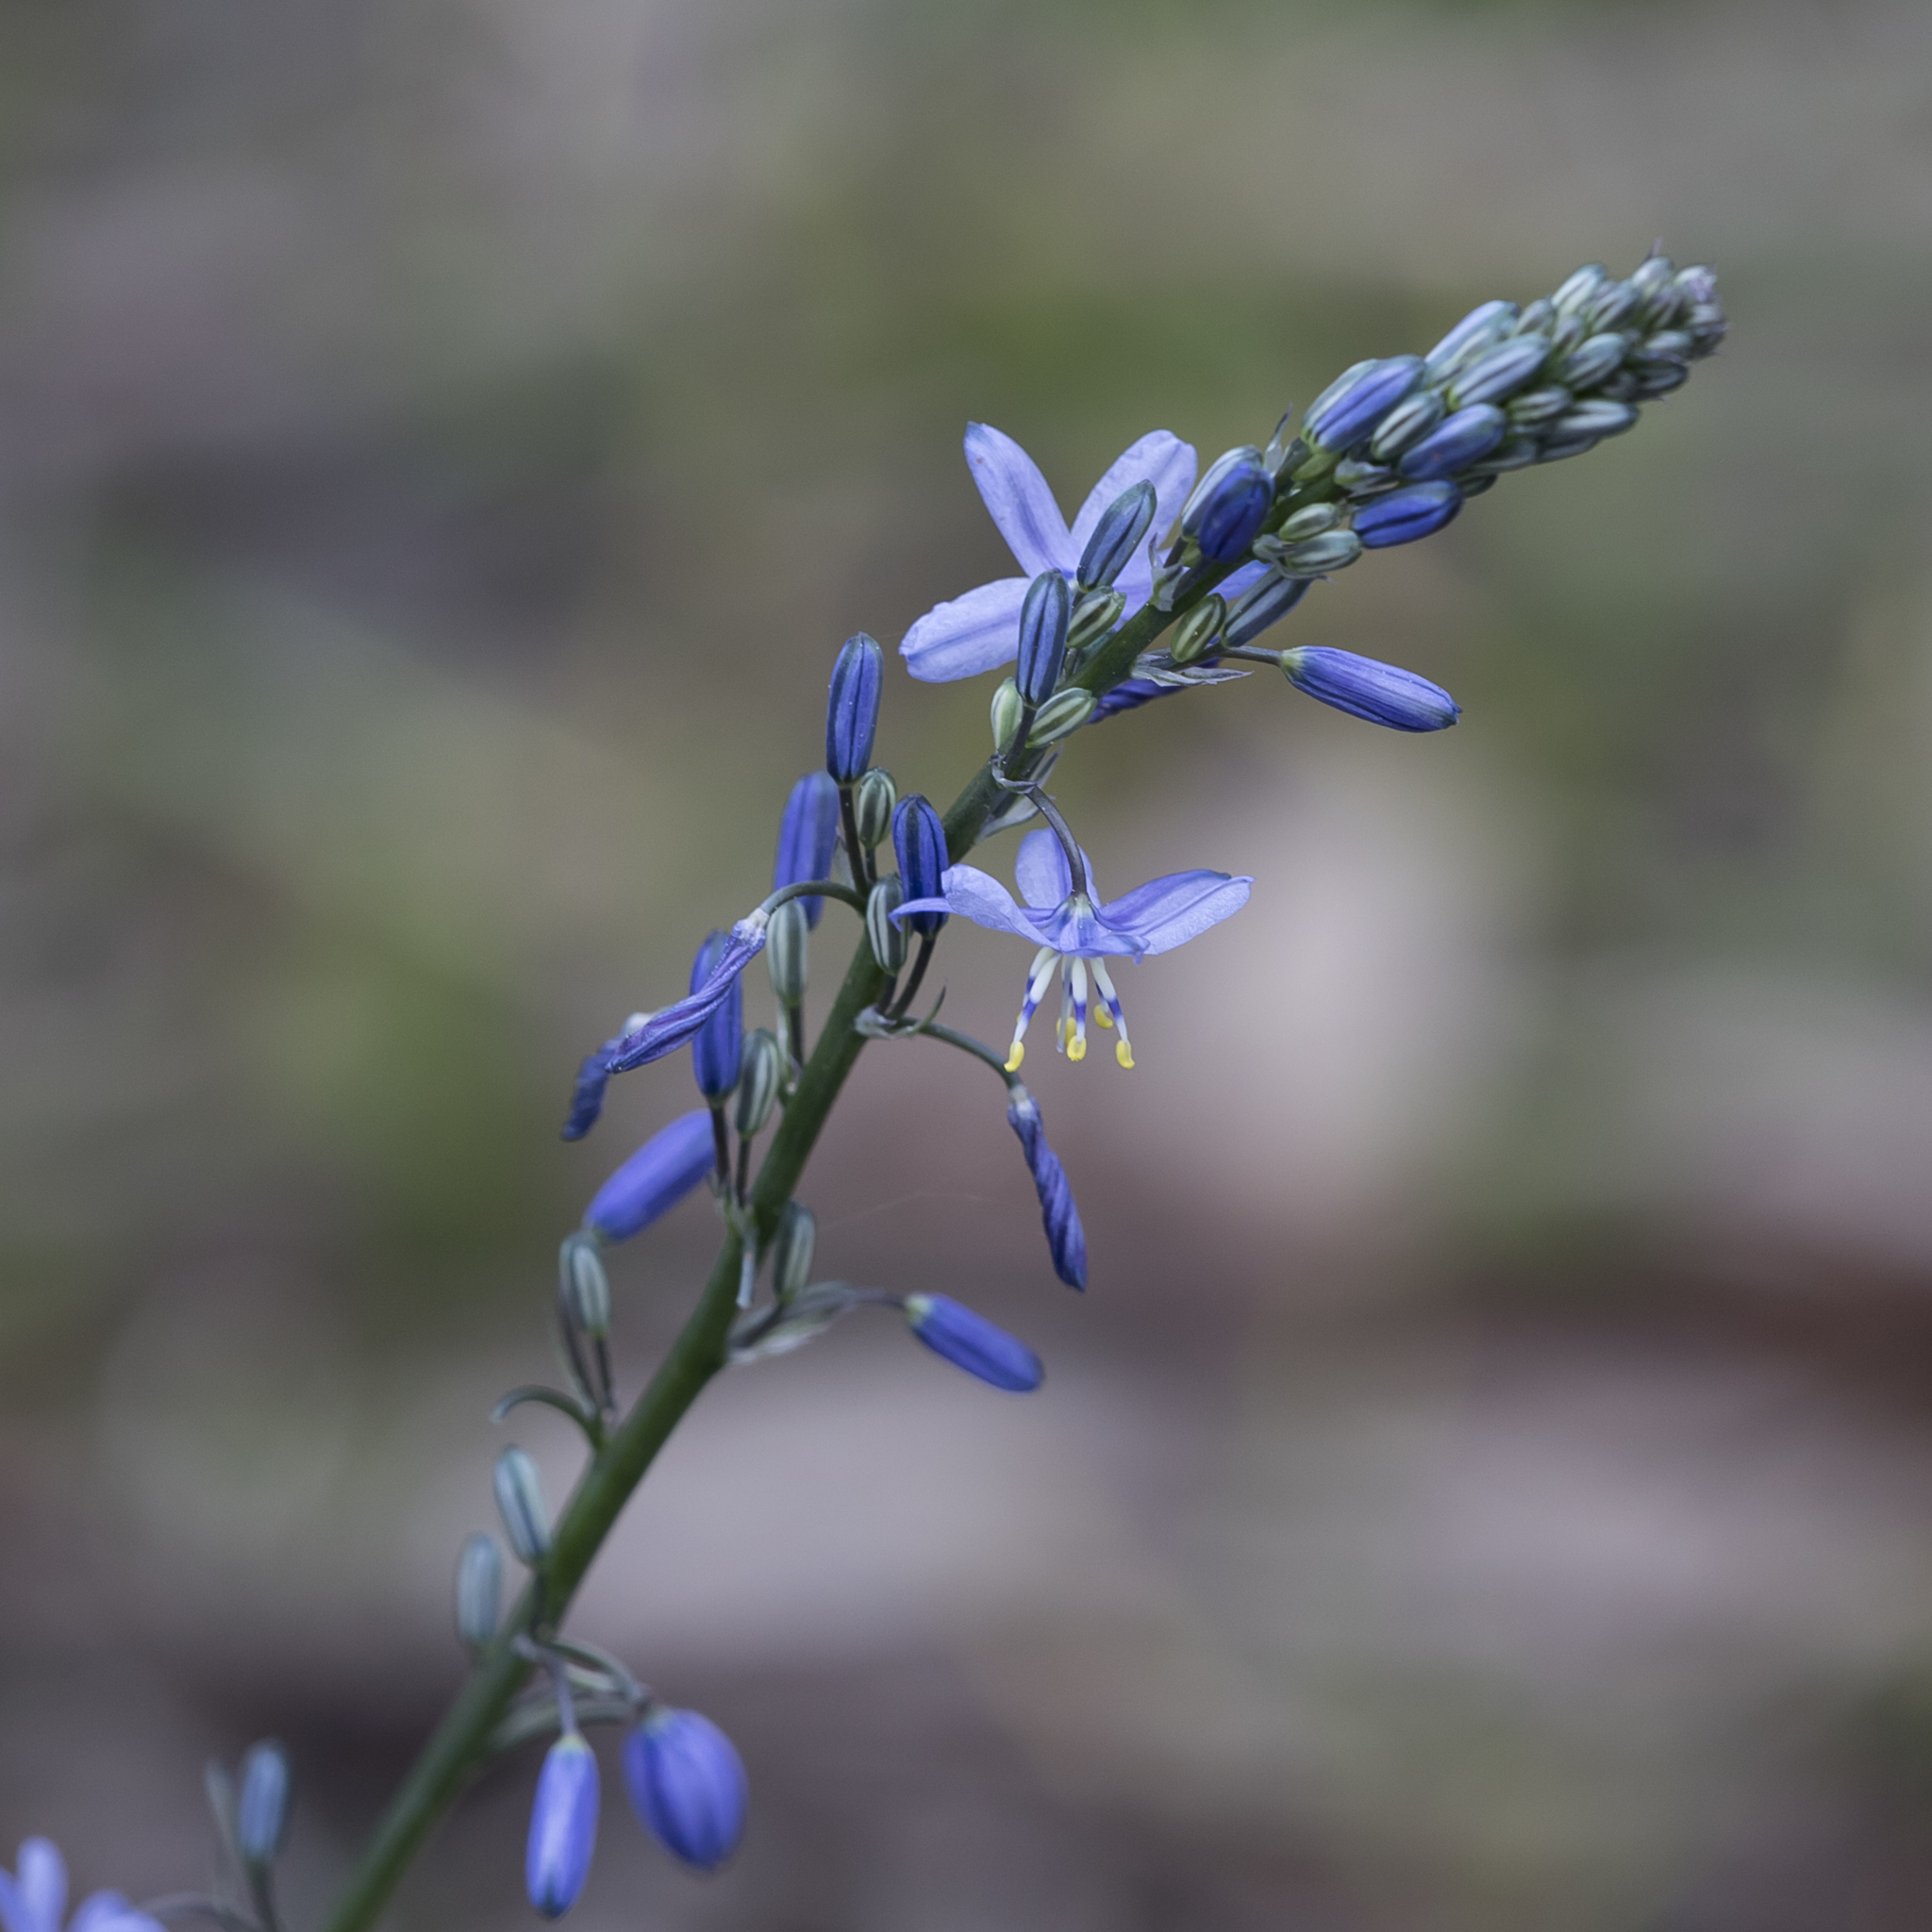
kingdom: Plantae
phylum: Tracheophyta
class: Liliopsida
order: Asparagales
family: Asphodelaceae
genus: Caesia
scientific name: Caesia calliantha
